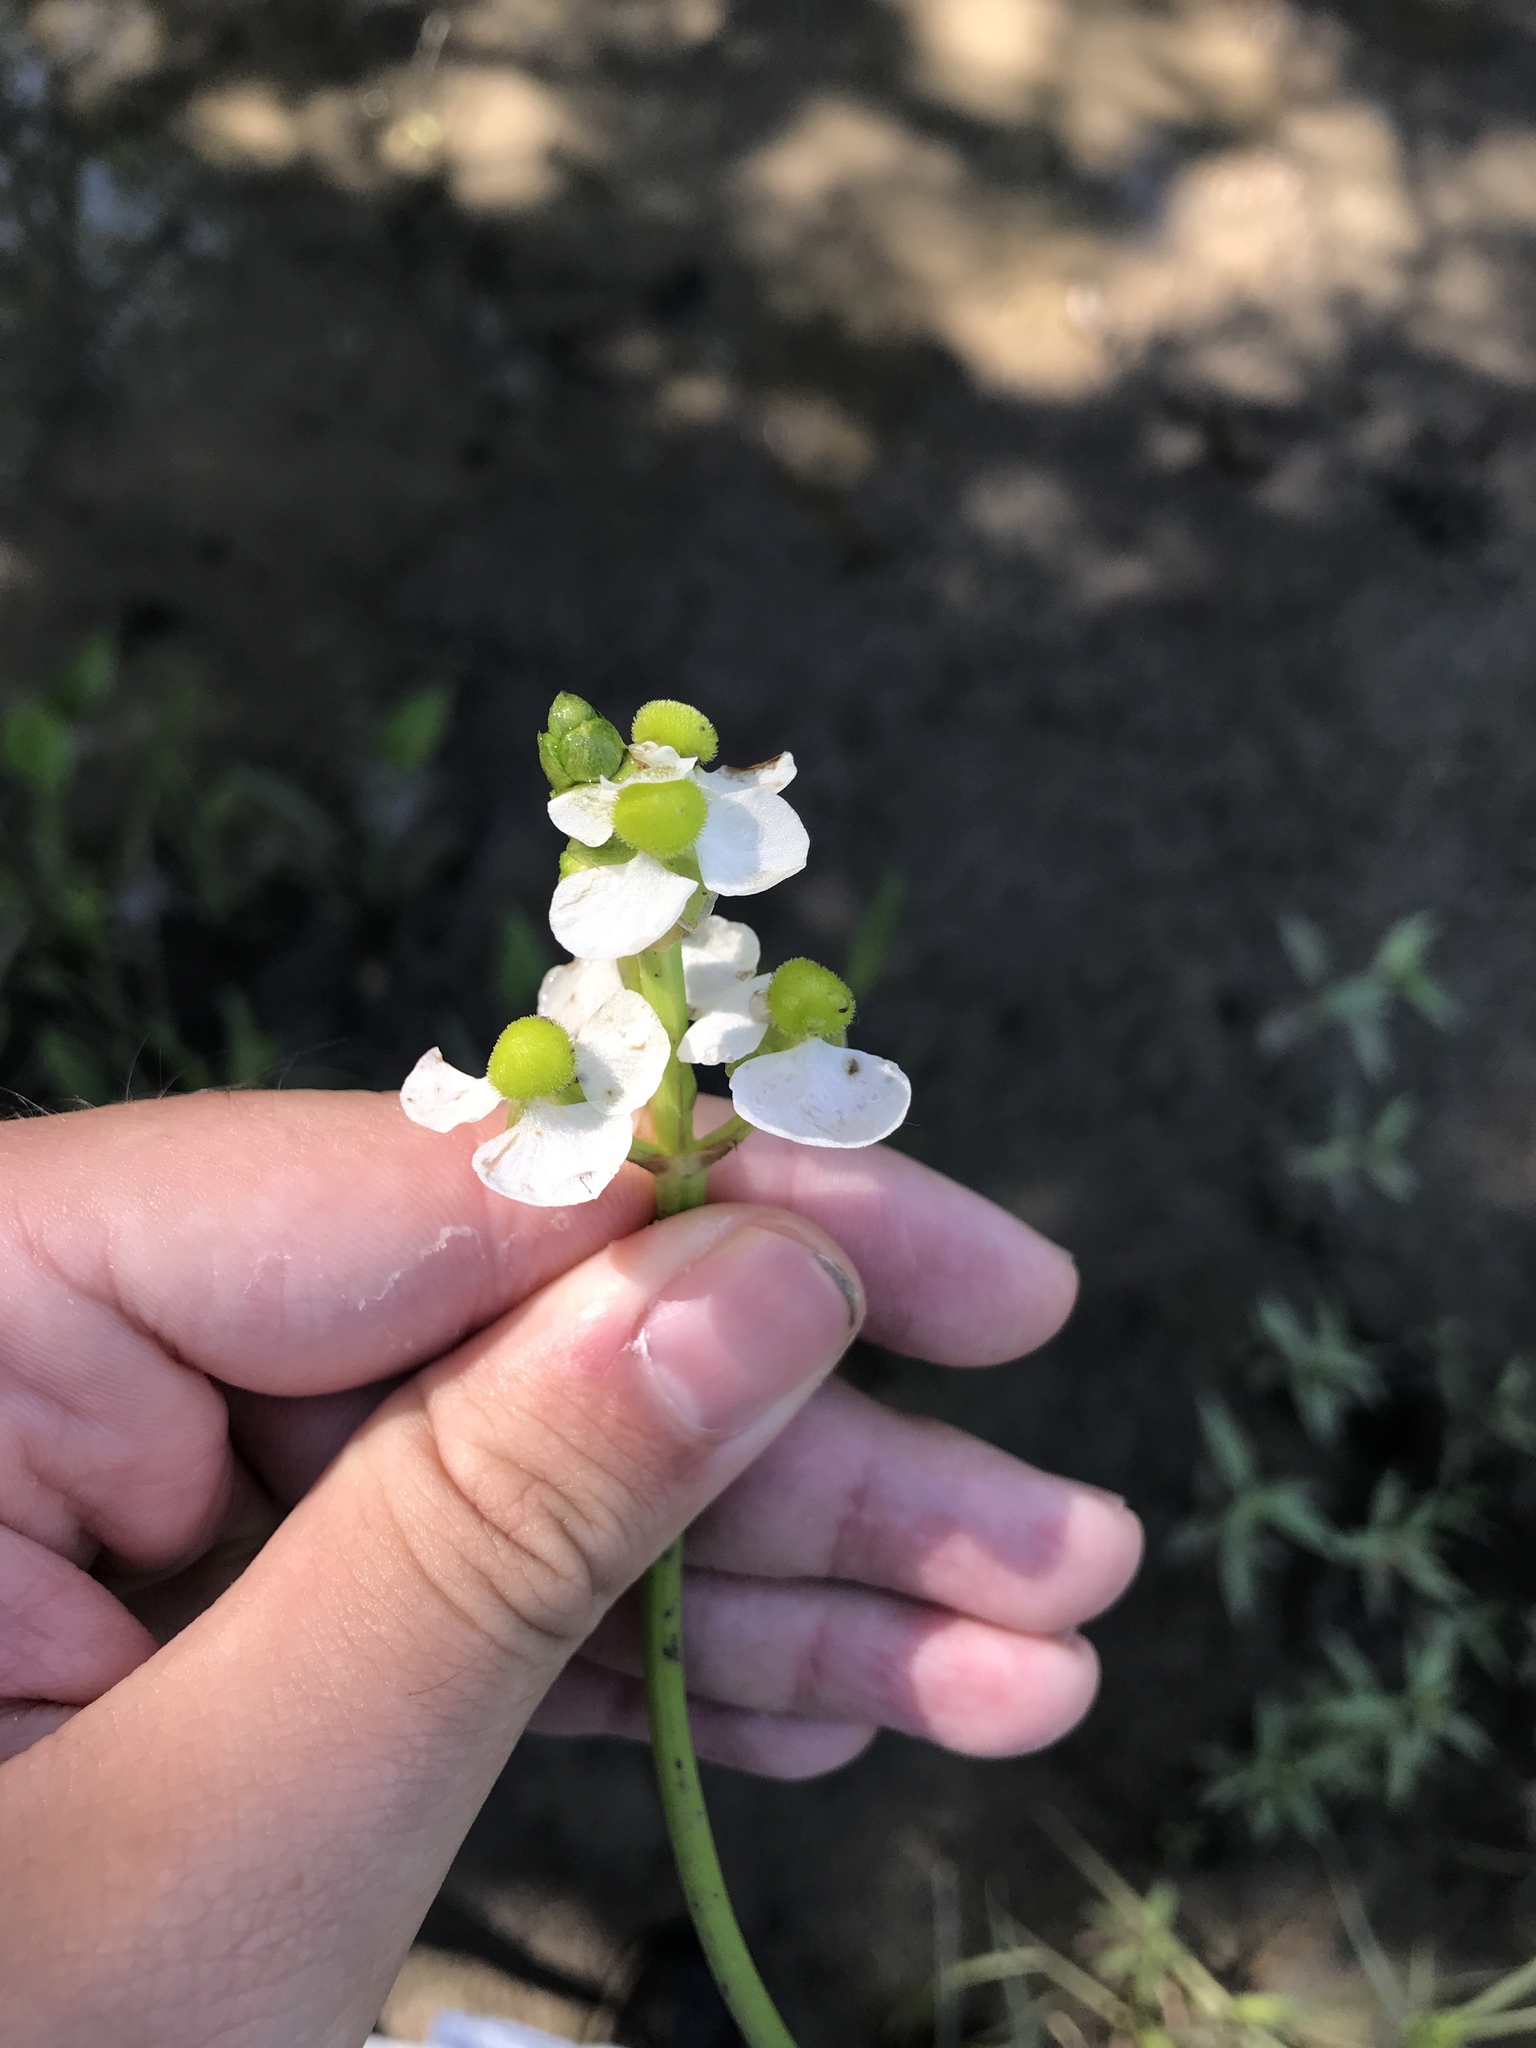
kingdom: Plantae
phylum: Tracheophyta
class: Liliopsida
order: Alismatales
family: Alismataceae
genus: Sagittaria
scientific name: Sagittaria platyphylla
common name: Broad-leaf arrowhead
